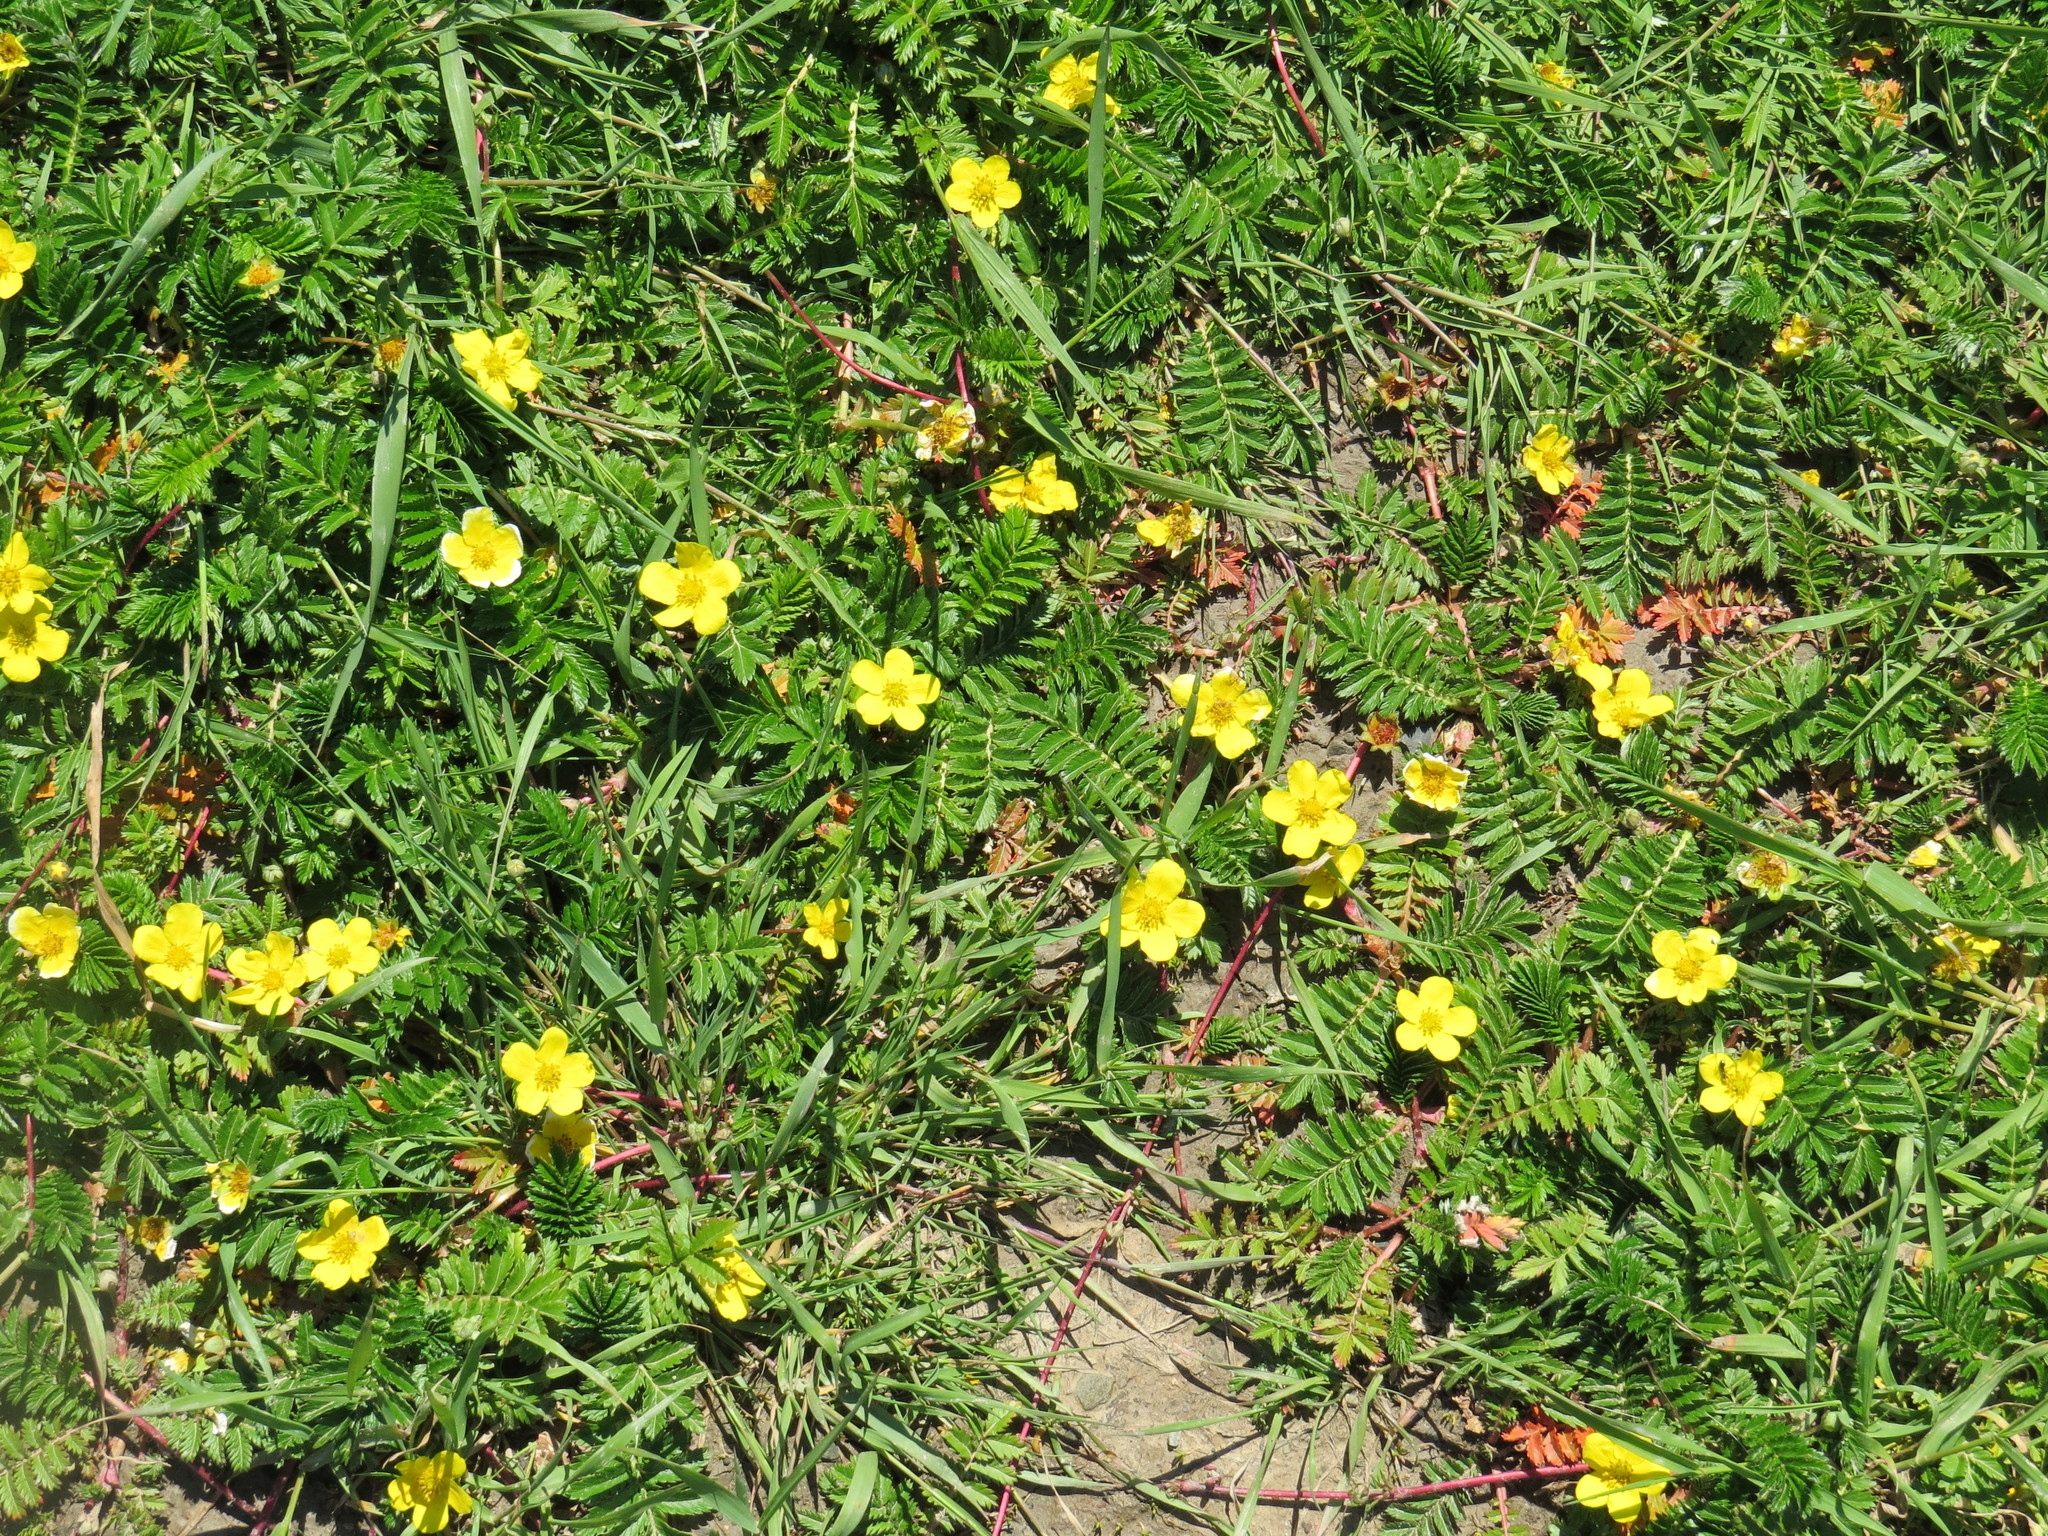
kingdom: Plantae
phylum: Tracheophyta
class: Magnoliopsida
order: Rosales
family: Rosaceae
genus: Argentina
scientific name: Argentina anserina
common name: Common silverweed
